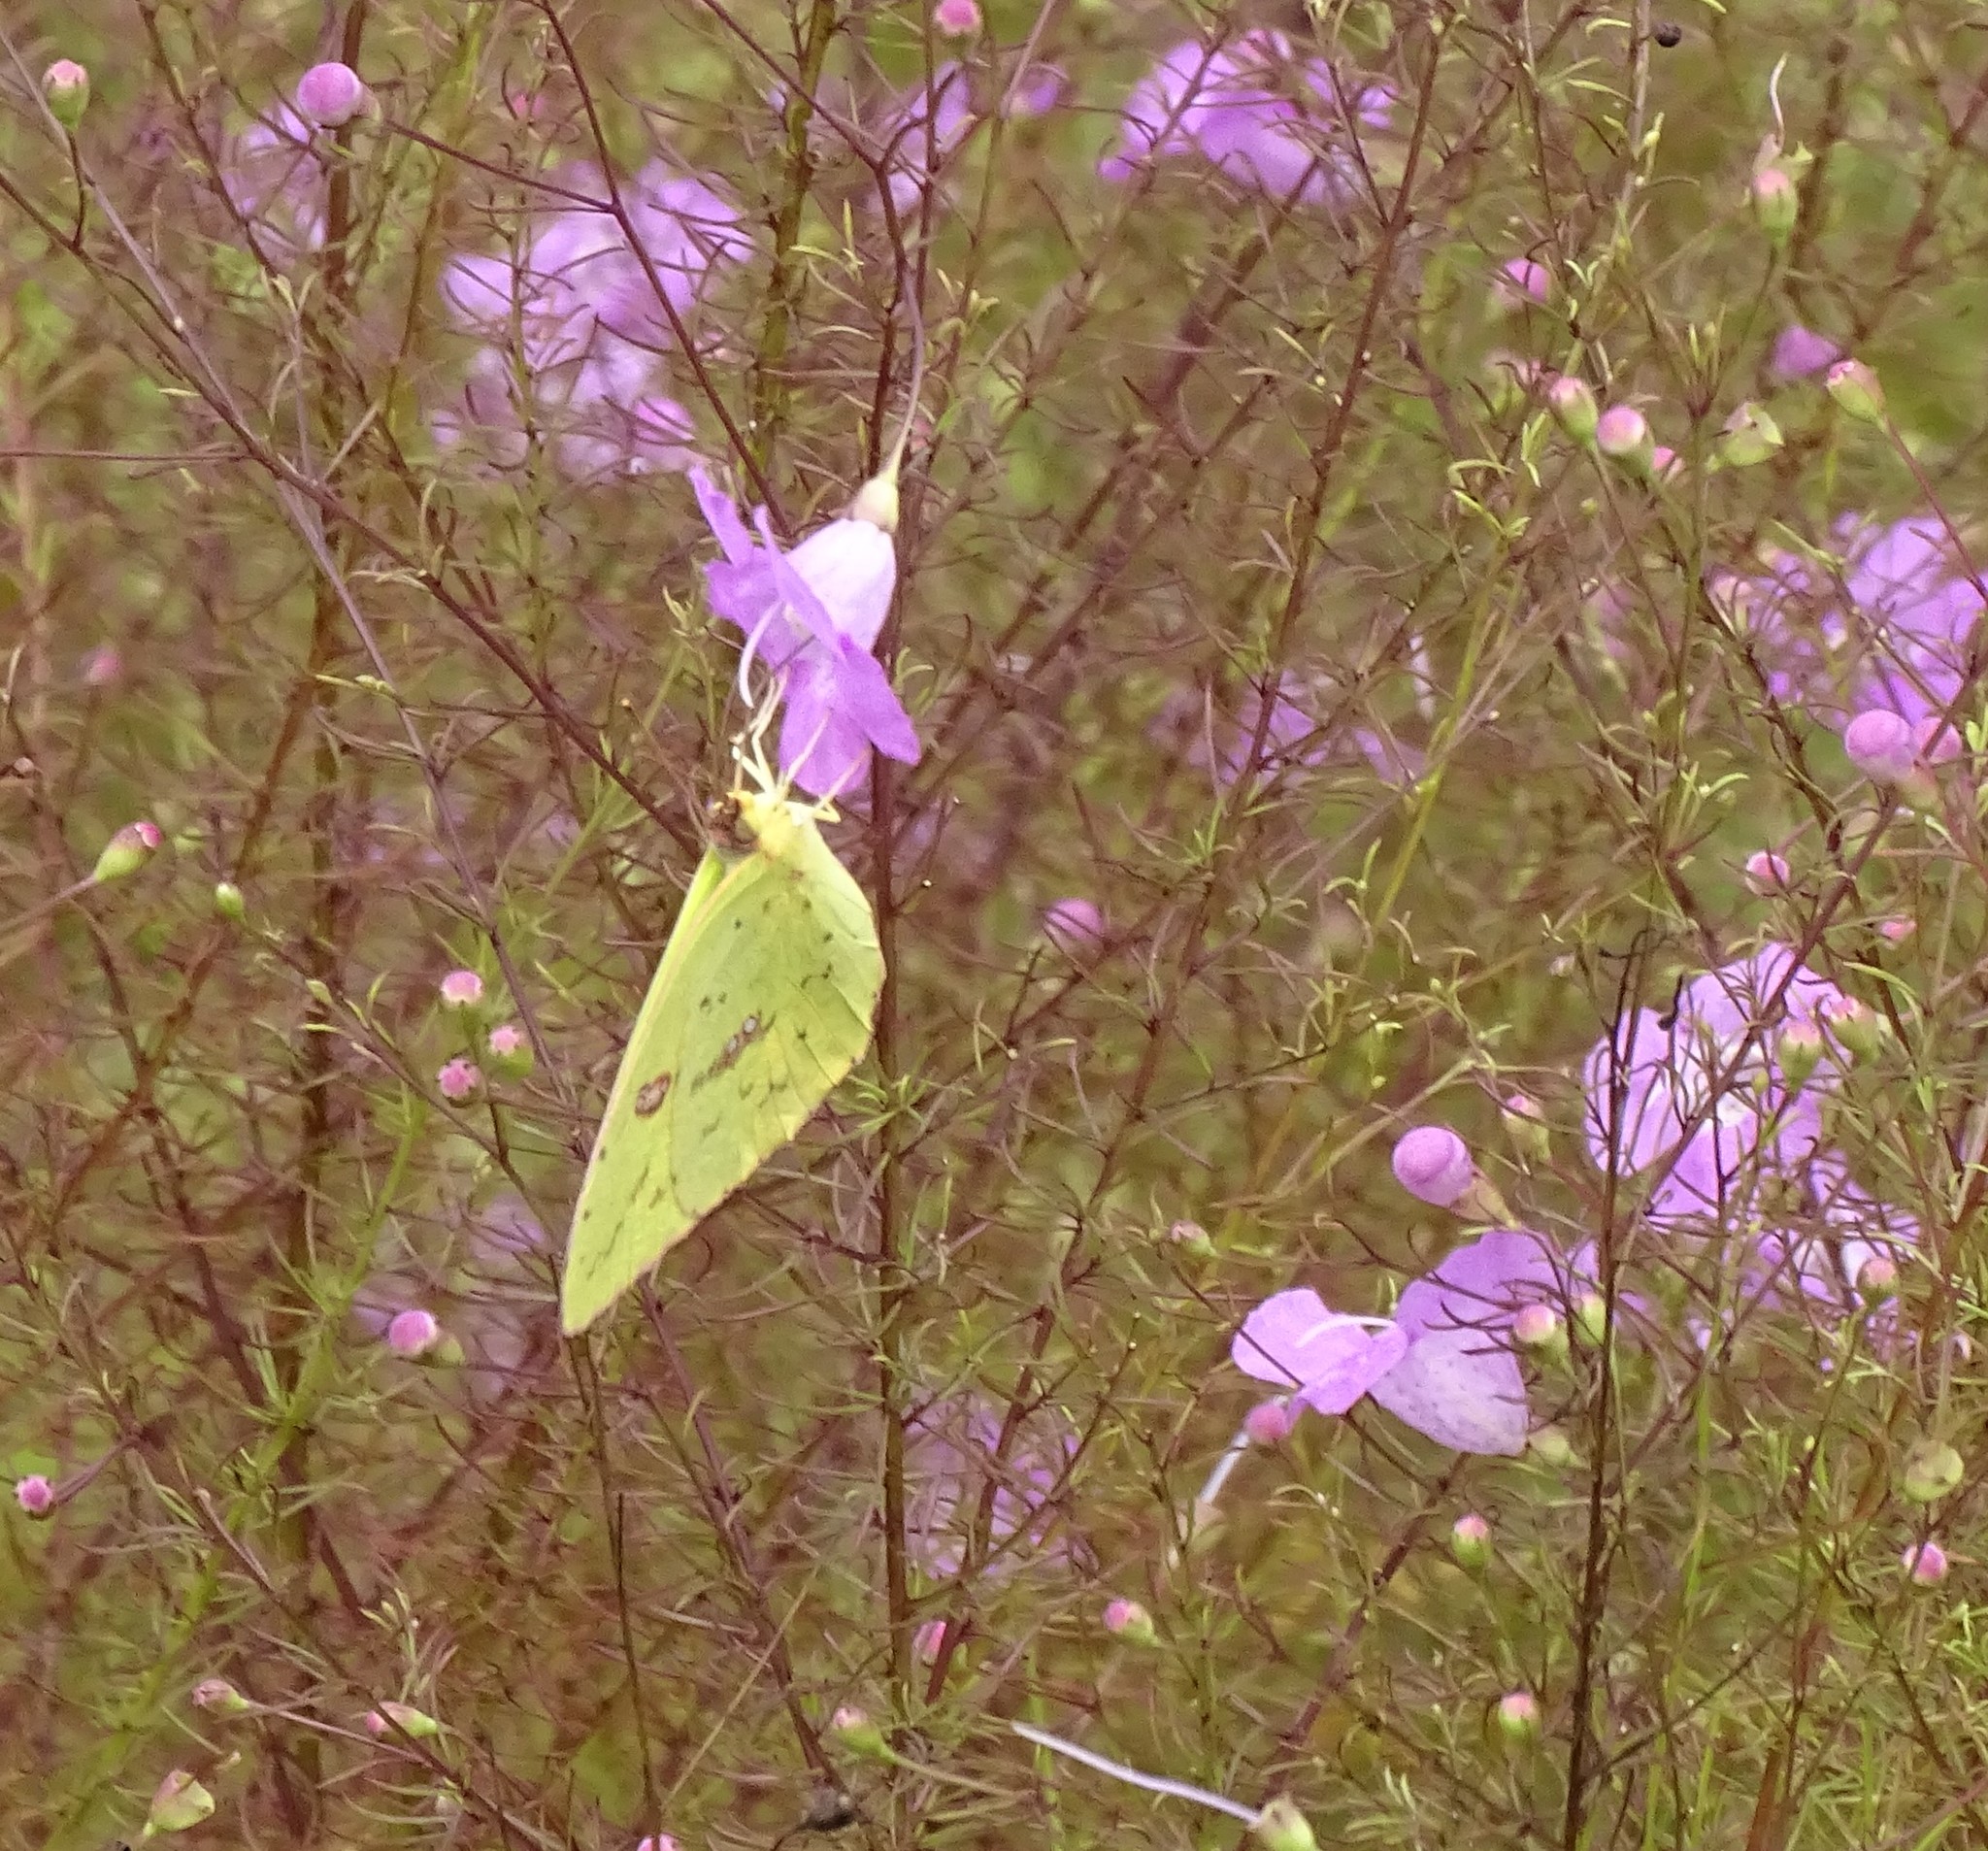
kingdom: Animalia
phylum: Arthropoda
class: Insecta
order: Lepidoptera
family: Pieridae
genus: Phoebis
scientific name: Phoebis sennae
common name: Cloudless sulphur
